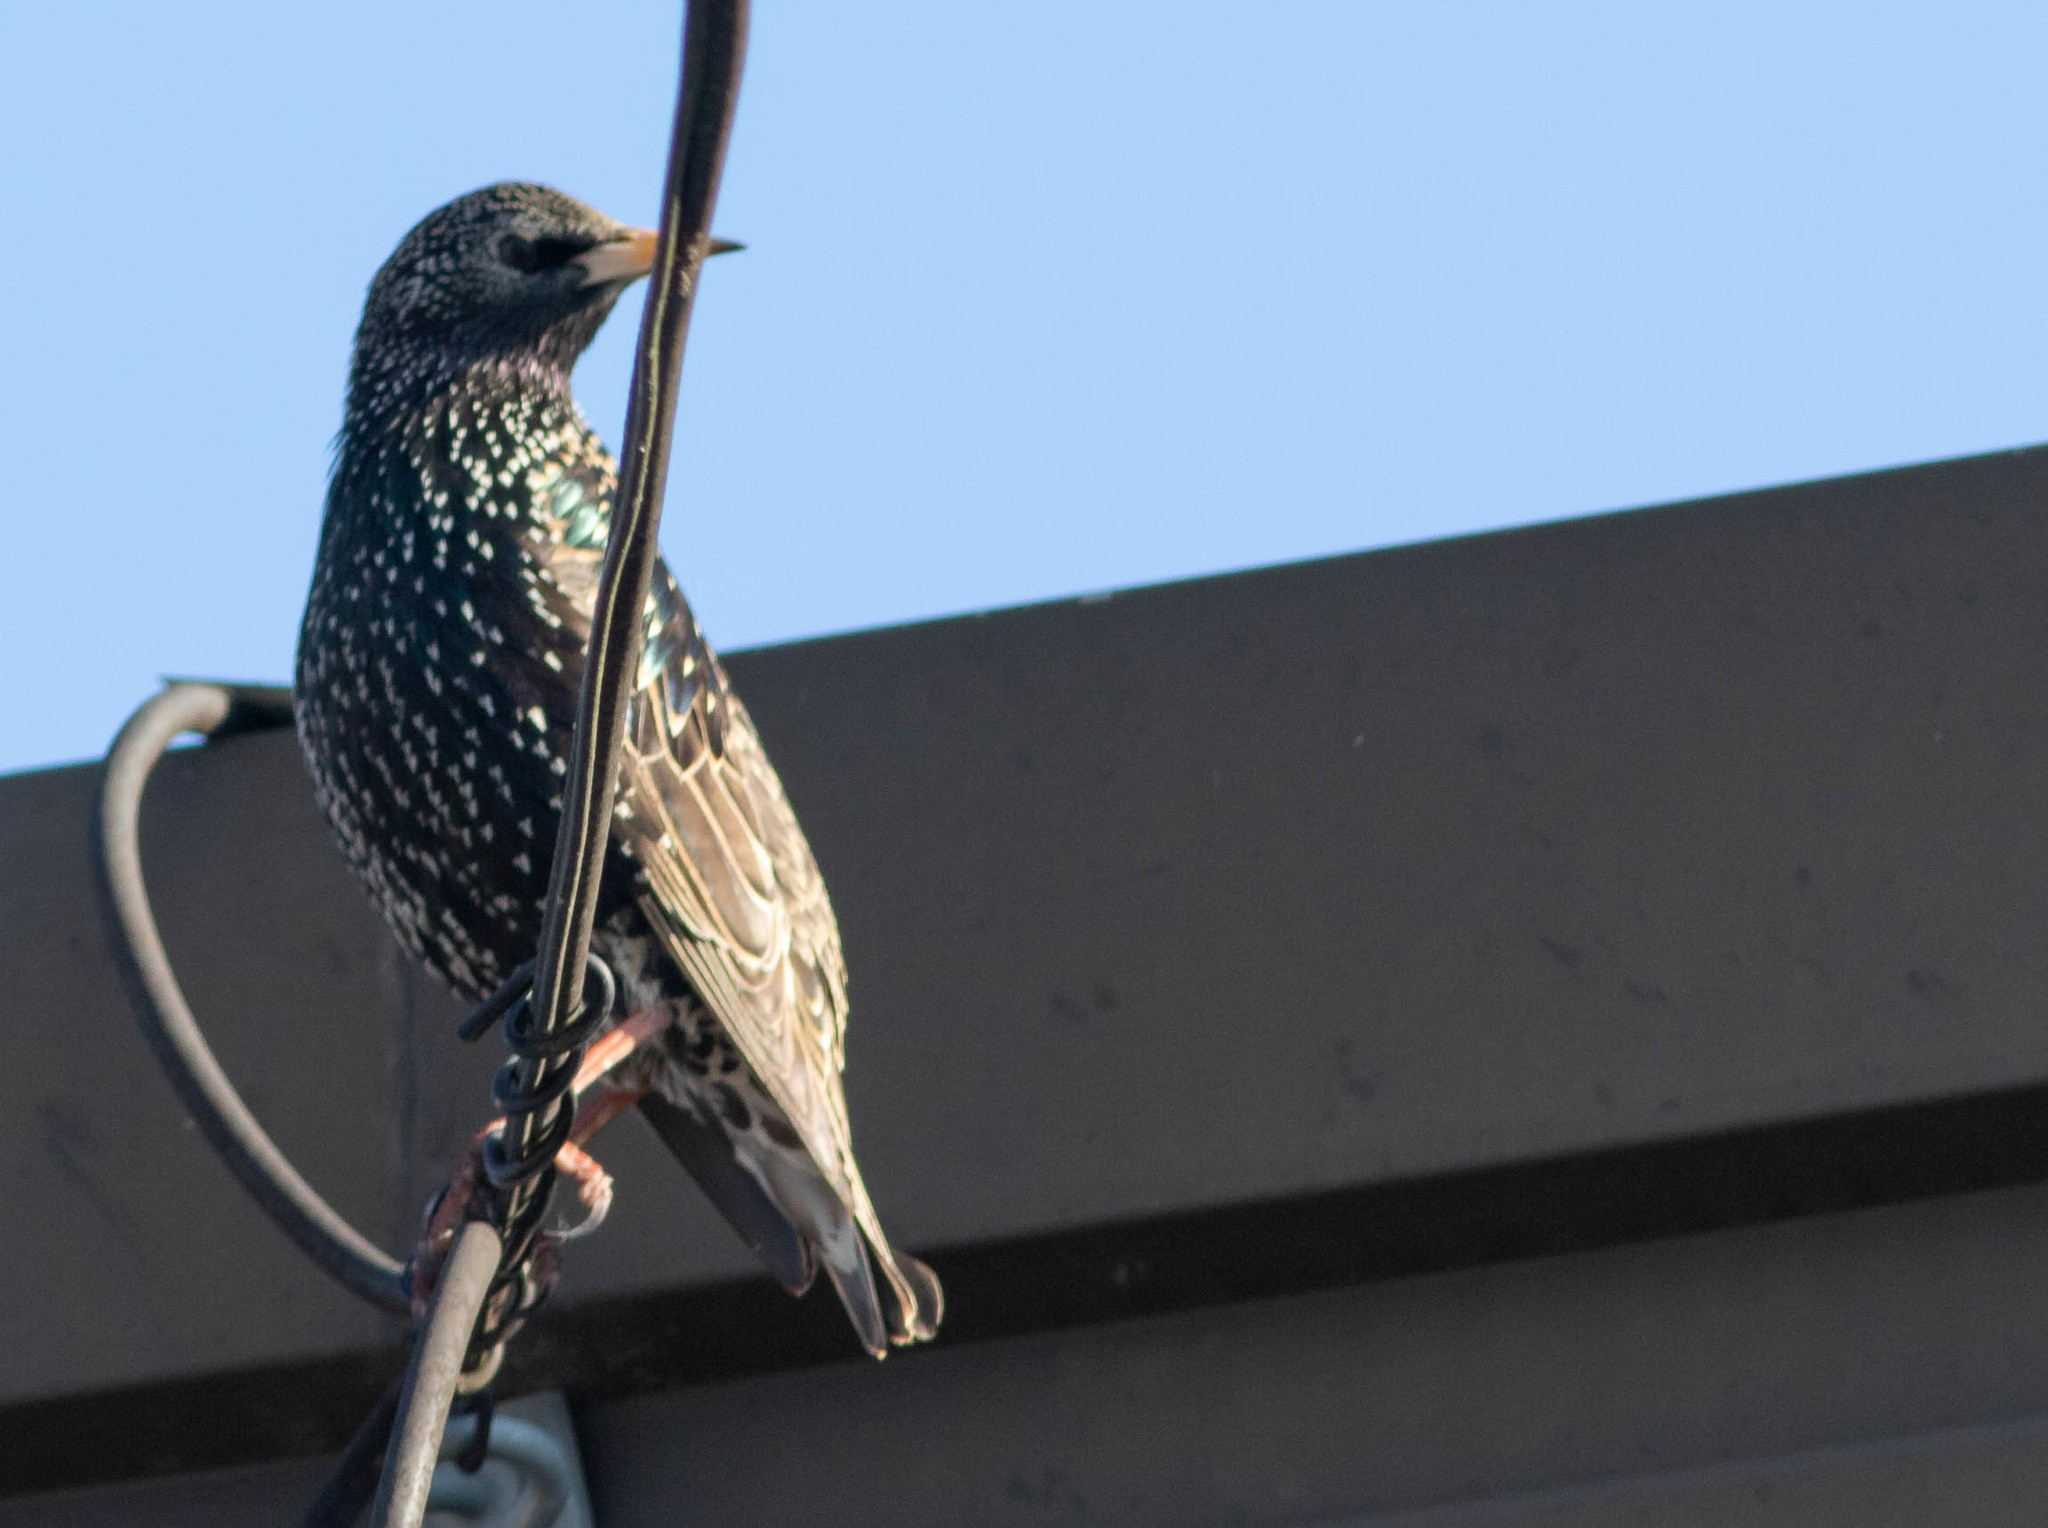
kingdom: Animalia
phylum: Chordata
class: Aves
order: Passeriformes
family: Sturnidae
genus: Sturnus
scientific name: Sturnus vulgaris
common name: Common starling
